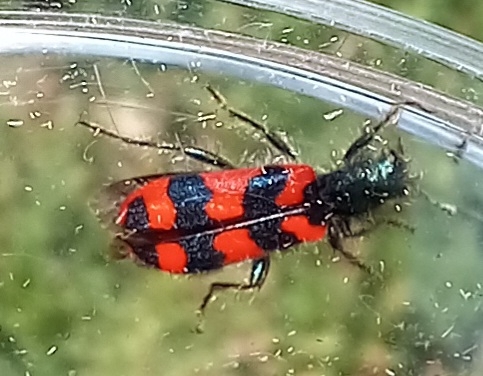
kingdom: Animalia
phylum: Arthropoda
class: Insecta
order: Coleoptera
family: Cleridae
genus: Trichodes
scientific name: Trichodes alvearius
